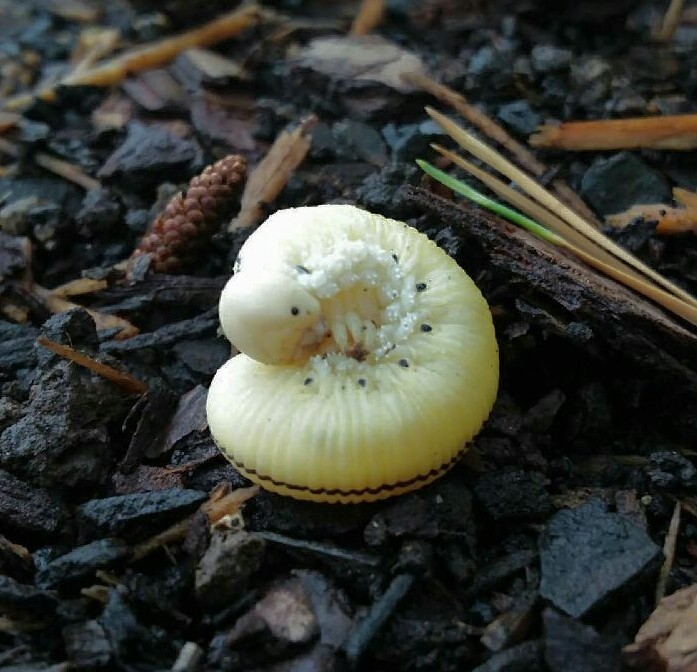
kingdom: Animalia
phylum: Arthropoda
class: Insecta
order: Hymenoptera
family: Cimbicidae
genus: Cimbex
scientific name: Cimbex americana
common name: Elm sawfly
